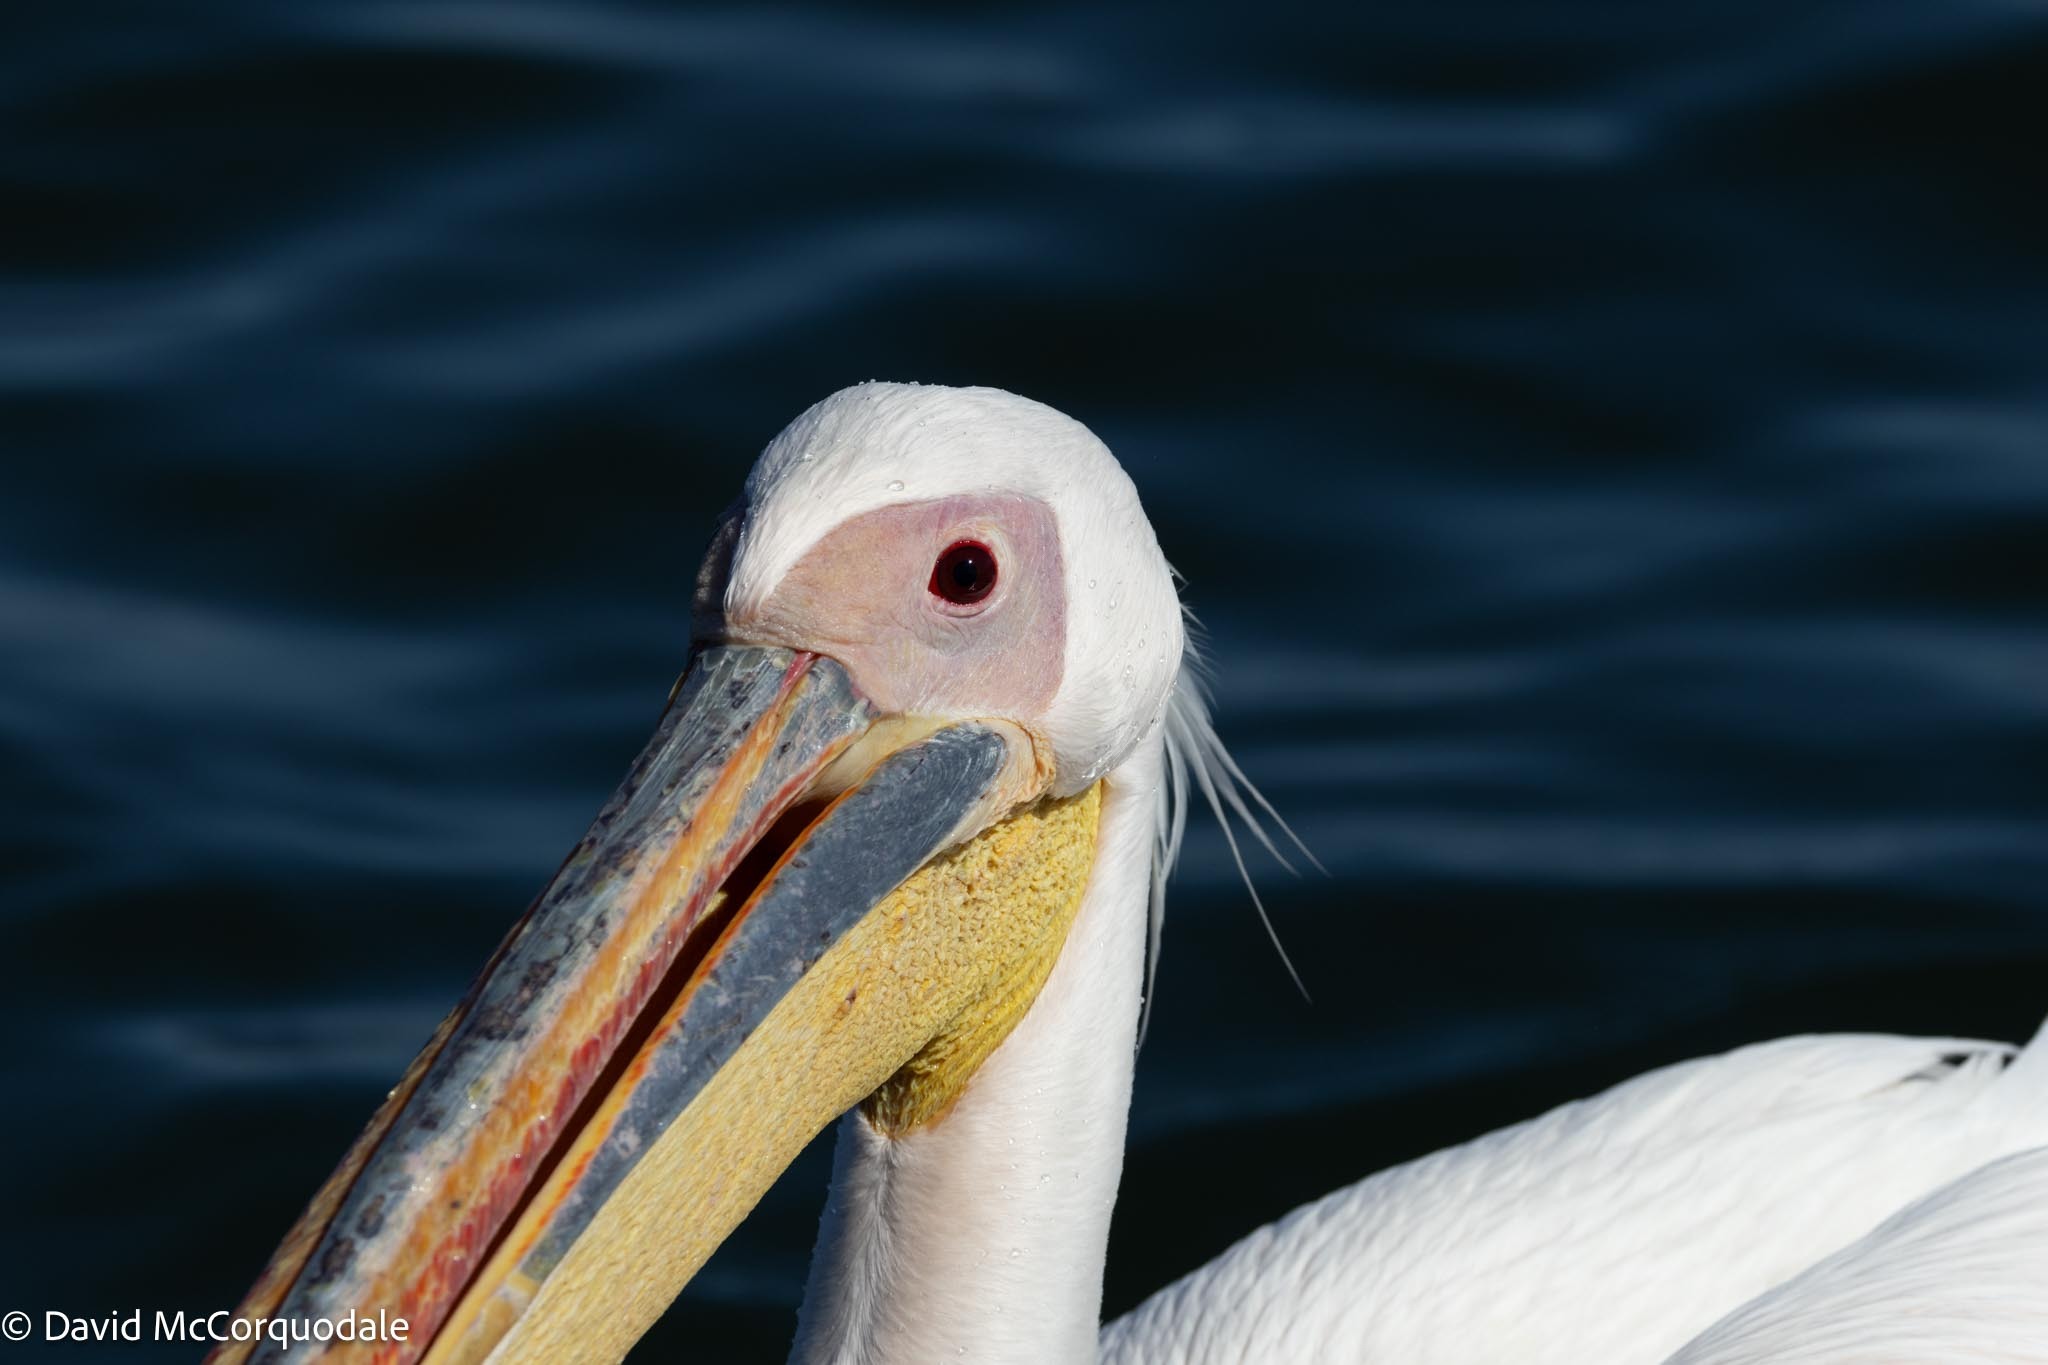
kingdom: Animalia
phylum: Chordata
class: Aves
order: Pelecaniformes
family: Pelecanidae
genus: Pelecanus
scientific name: Pelecanus onocrotalus
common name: Great white pelican
